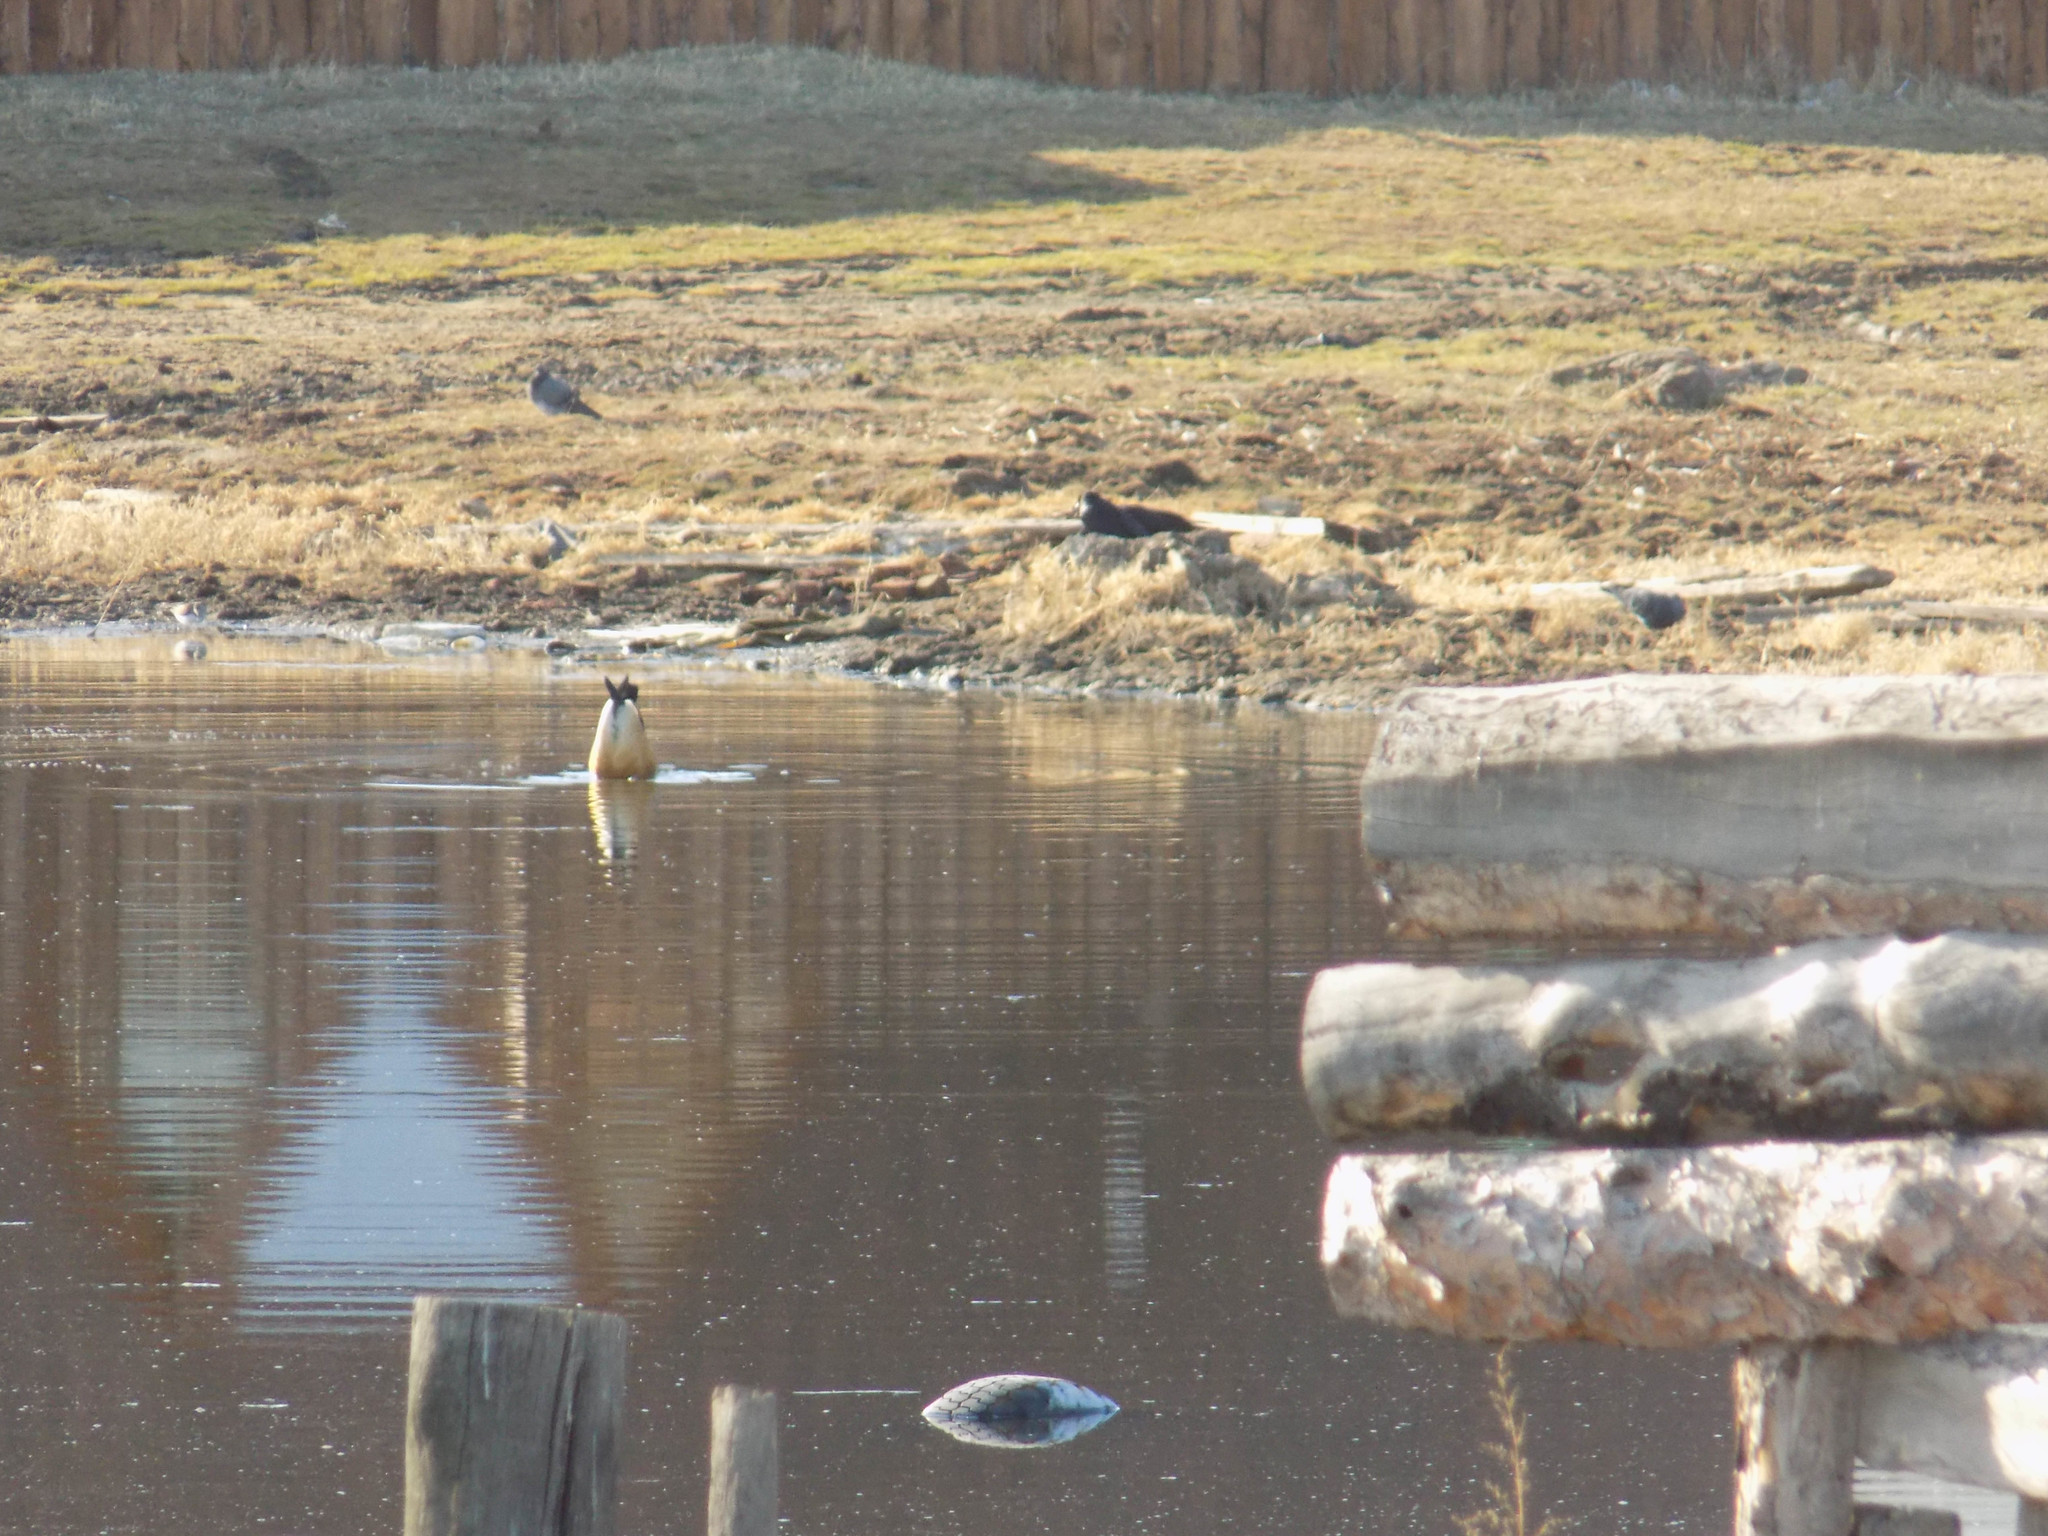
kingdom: Animalia
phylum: Chordata
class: Aves
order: Anseriformes
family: Anatidae
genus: Tadorna
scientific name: Tadorna ferruginea
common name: Ruddy shelduck
